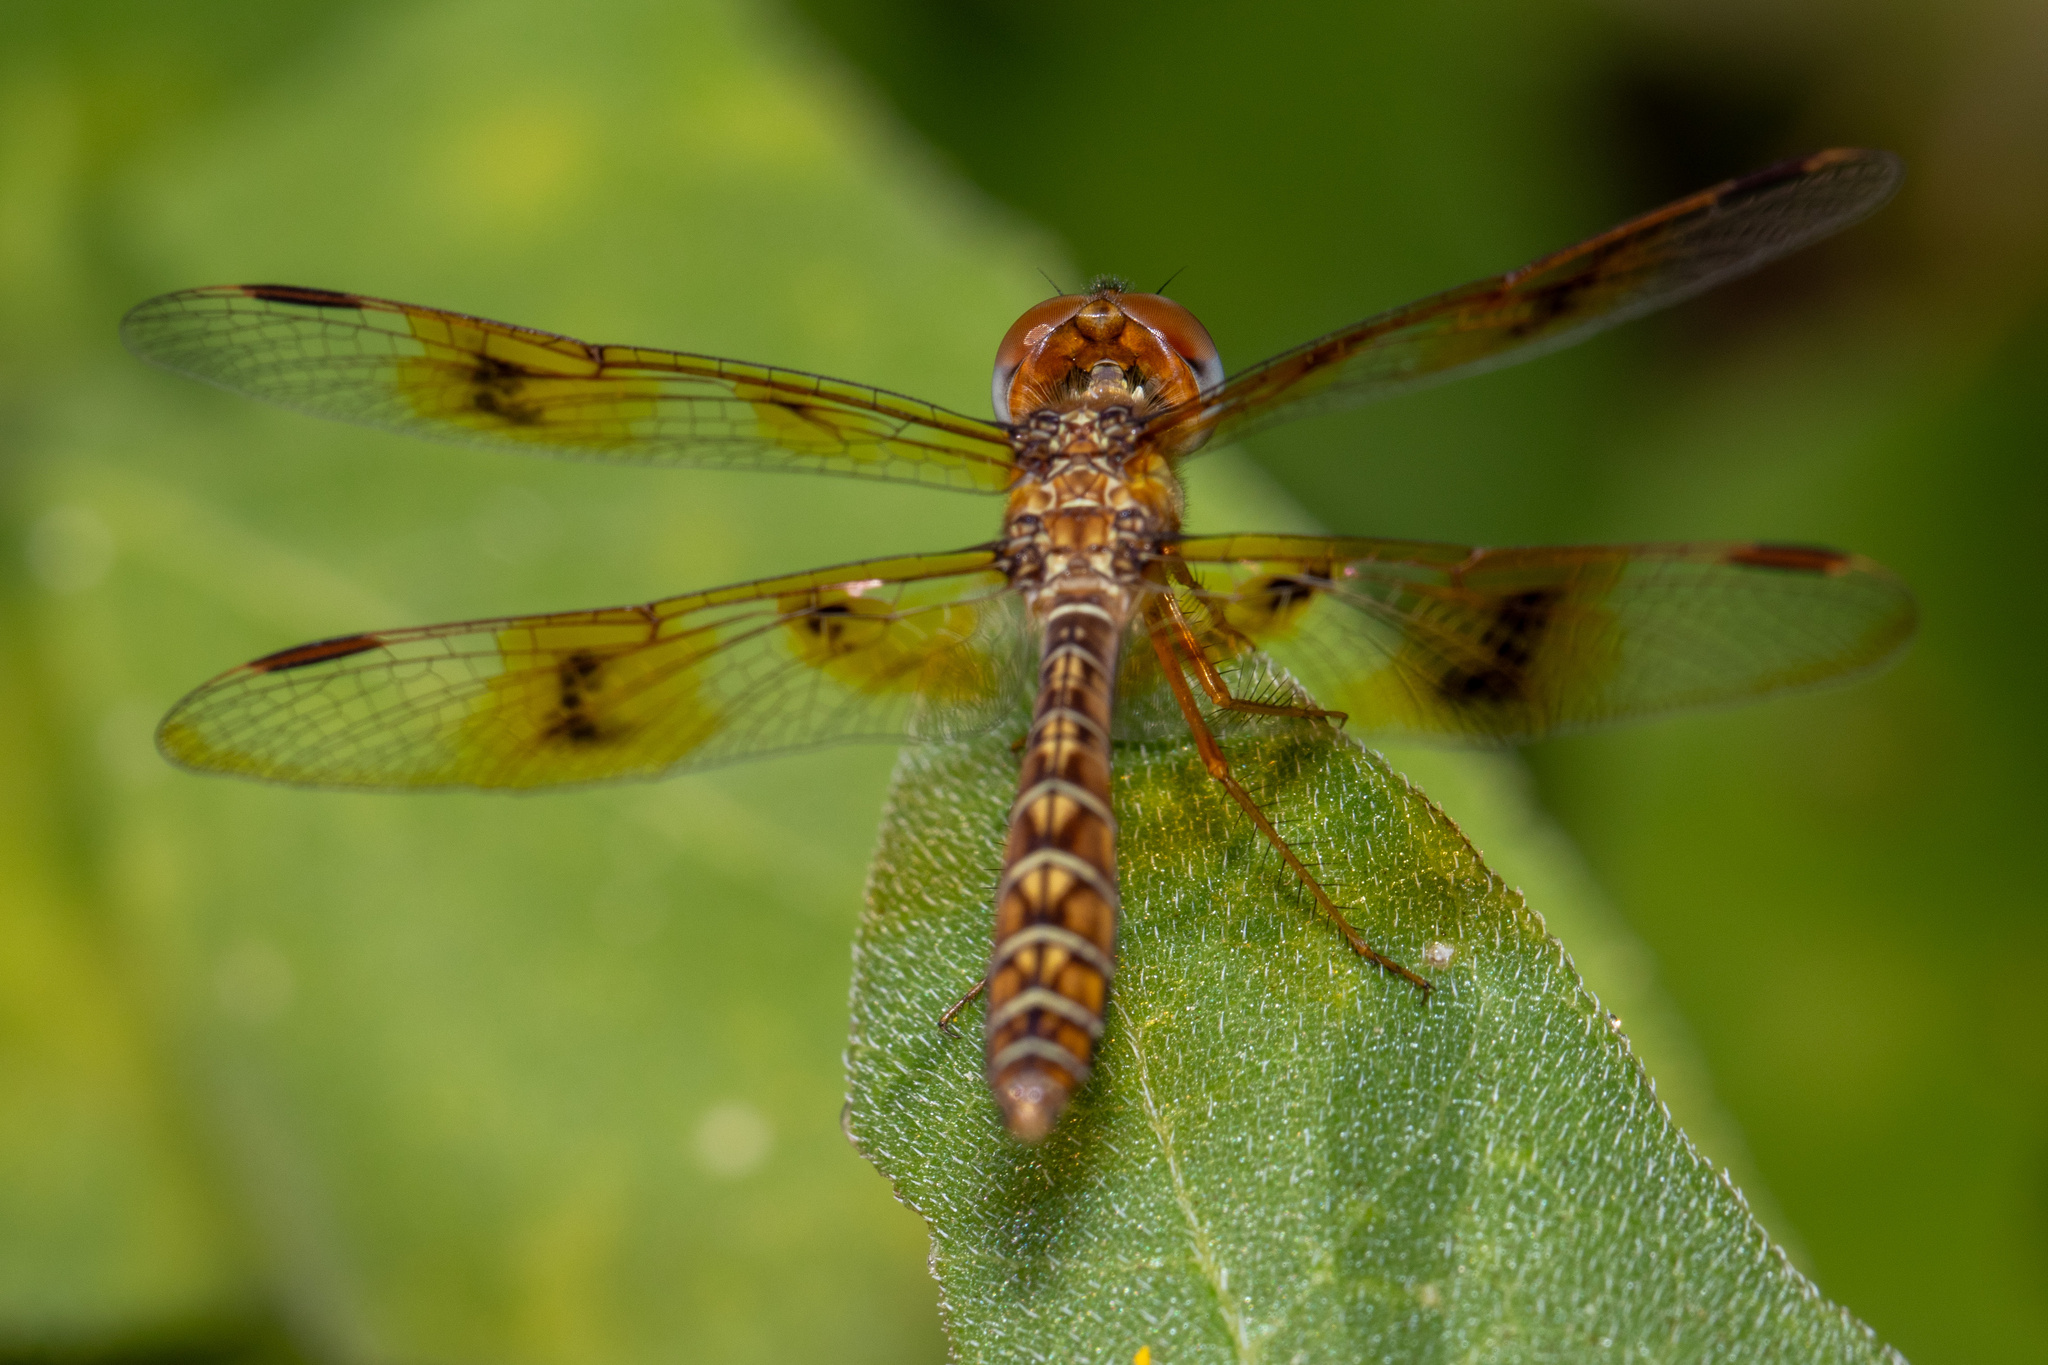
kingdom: Animalia
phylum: Arthropoda
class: Insecta
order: Odonata
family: Libellulidae
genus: Perithemis
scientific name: Perithemis tenera
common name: Eastern amberwing
